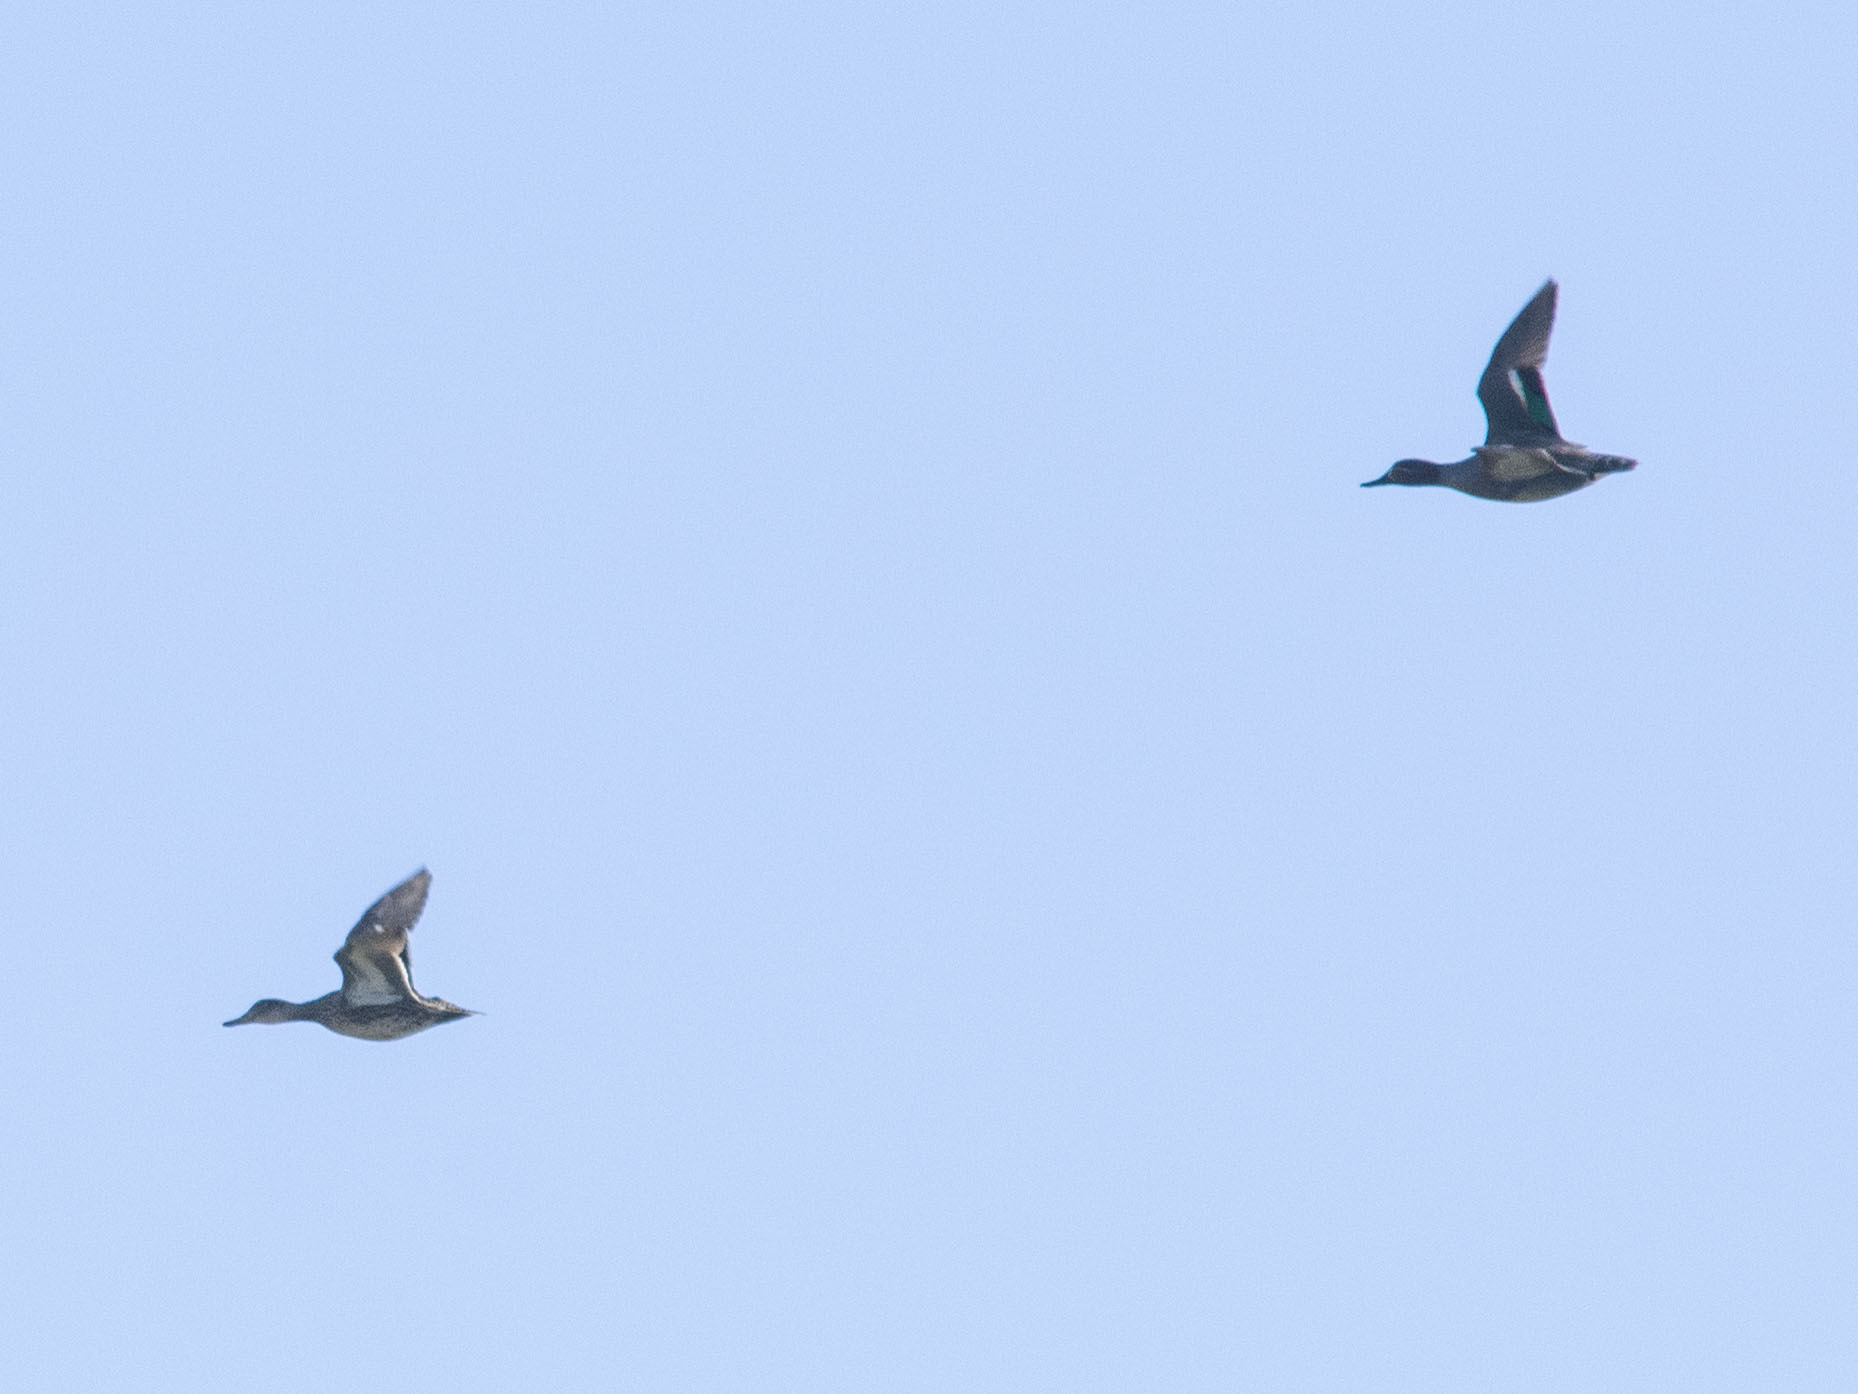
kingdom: Animalia
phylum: Chordata
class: Aves
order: Anseriformes
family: Anatidae
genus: Anas
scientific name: Anas crecca
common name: Eurasian teal
